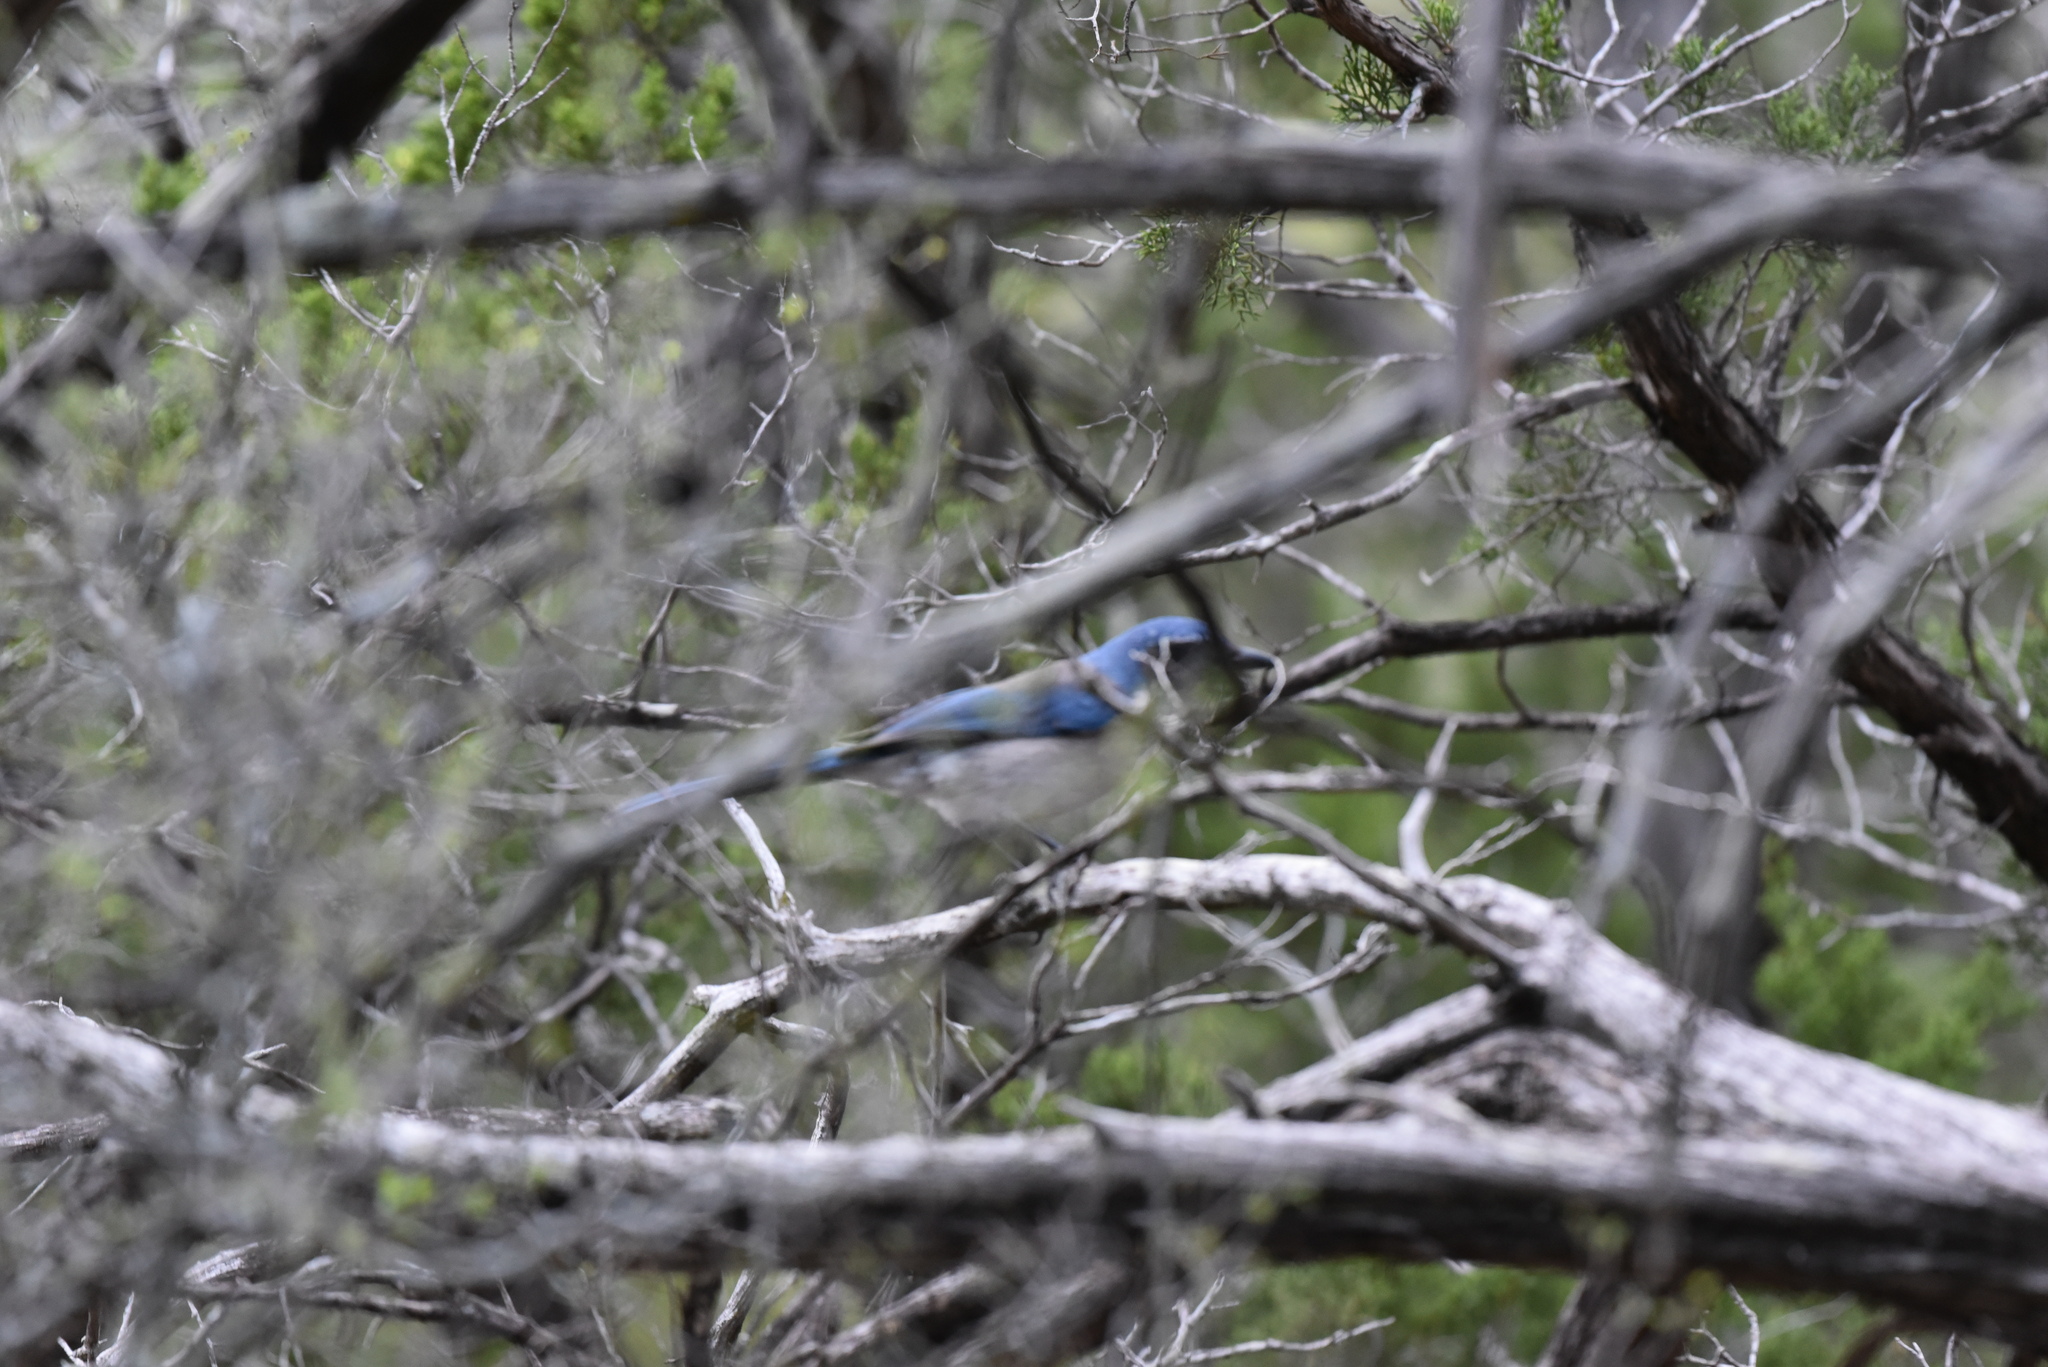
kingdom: Animalia
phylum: Chordata
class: Aves
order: Passeriformes
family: Corvidae
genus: Aphelocoma
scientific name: Aphelocoma woodhouseii
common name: Woodhouse's scrub-jay
